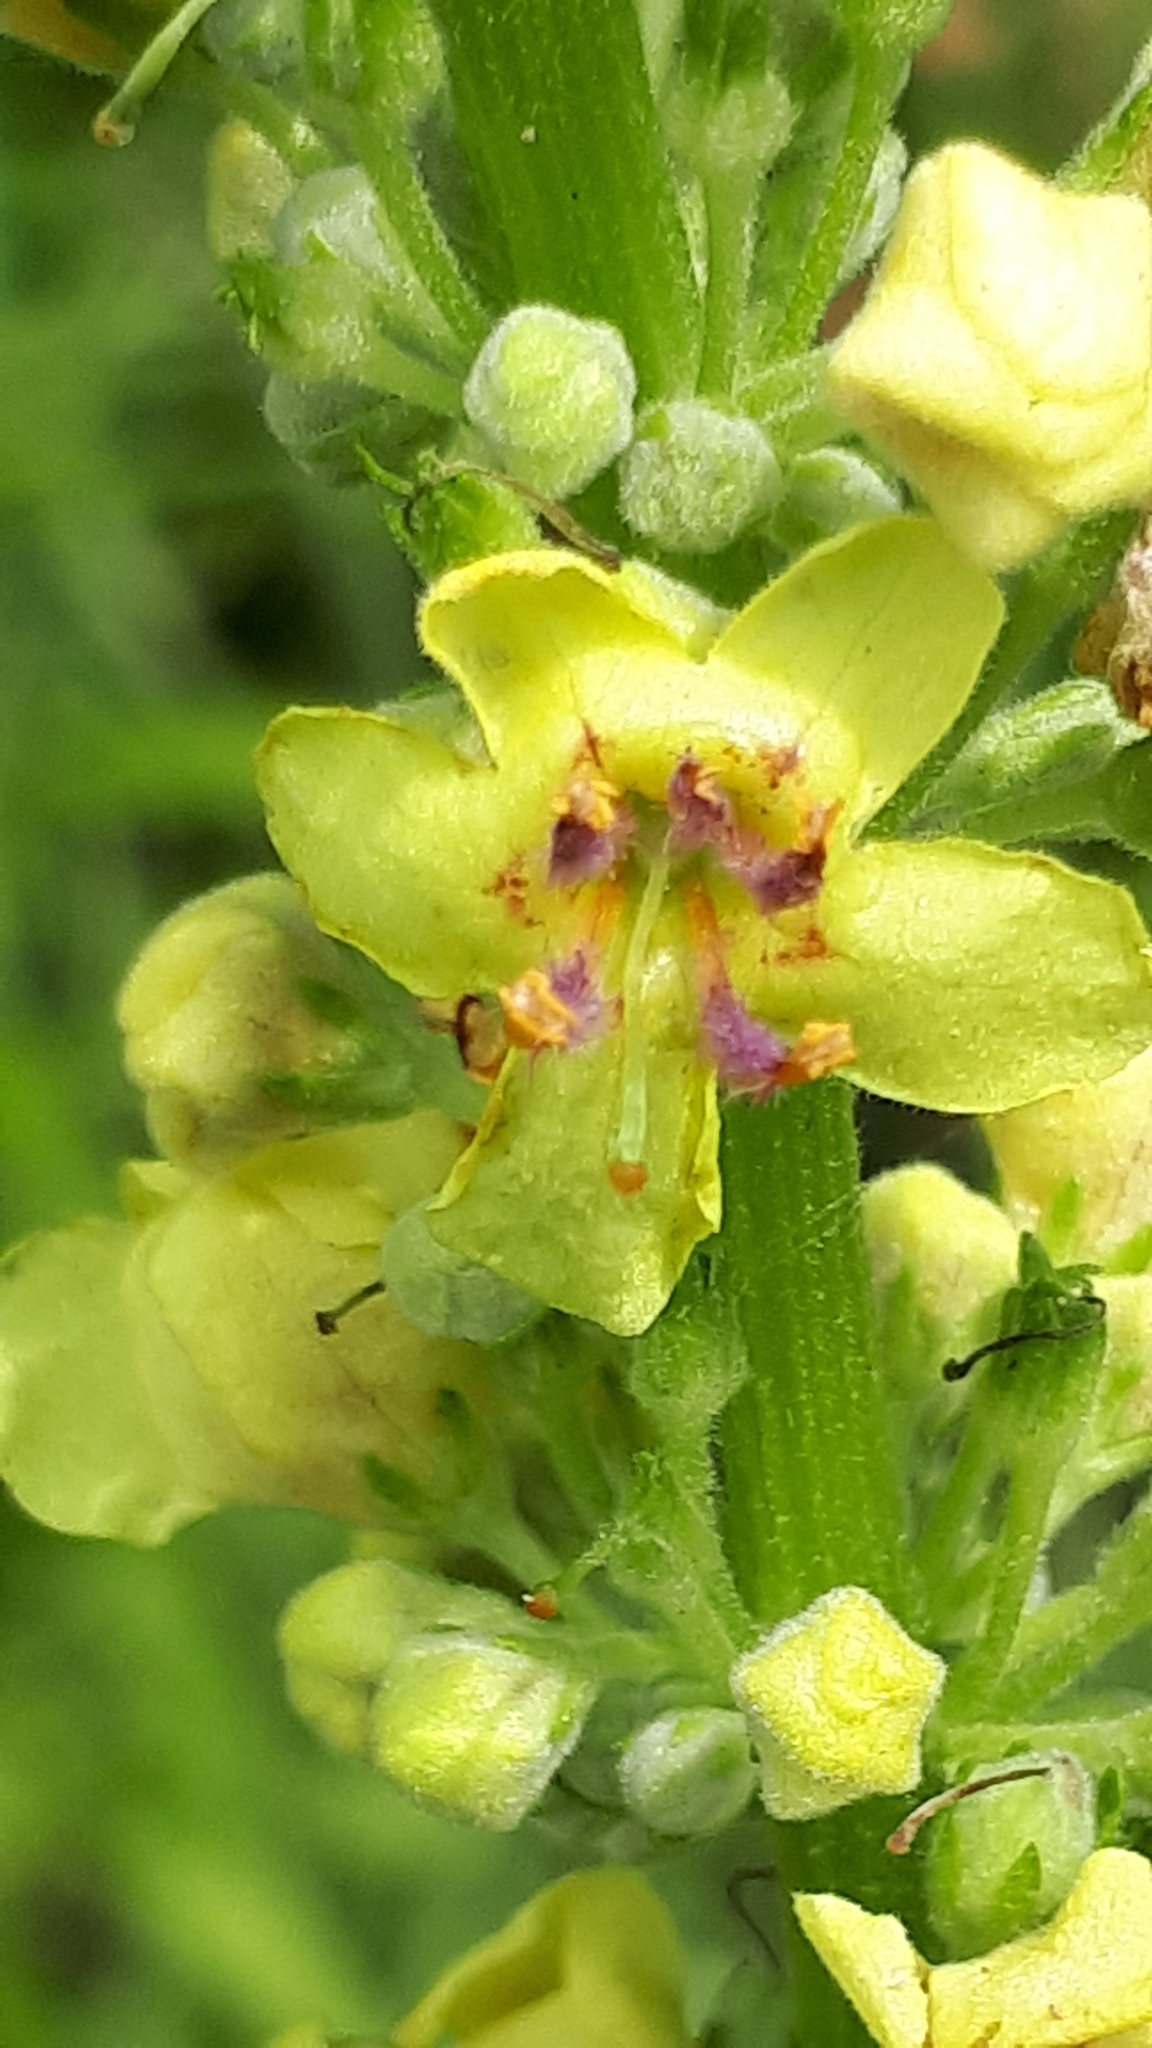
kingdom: Plantae
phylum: Tracheophyta
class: Magnoliopsida
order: Lamiales
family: Scrophulariaceae
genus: Verbascum
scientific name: Verbascum nigrum
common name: Dark mullein
